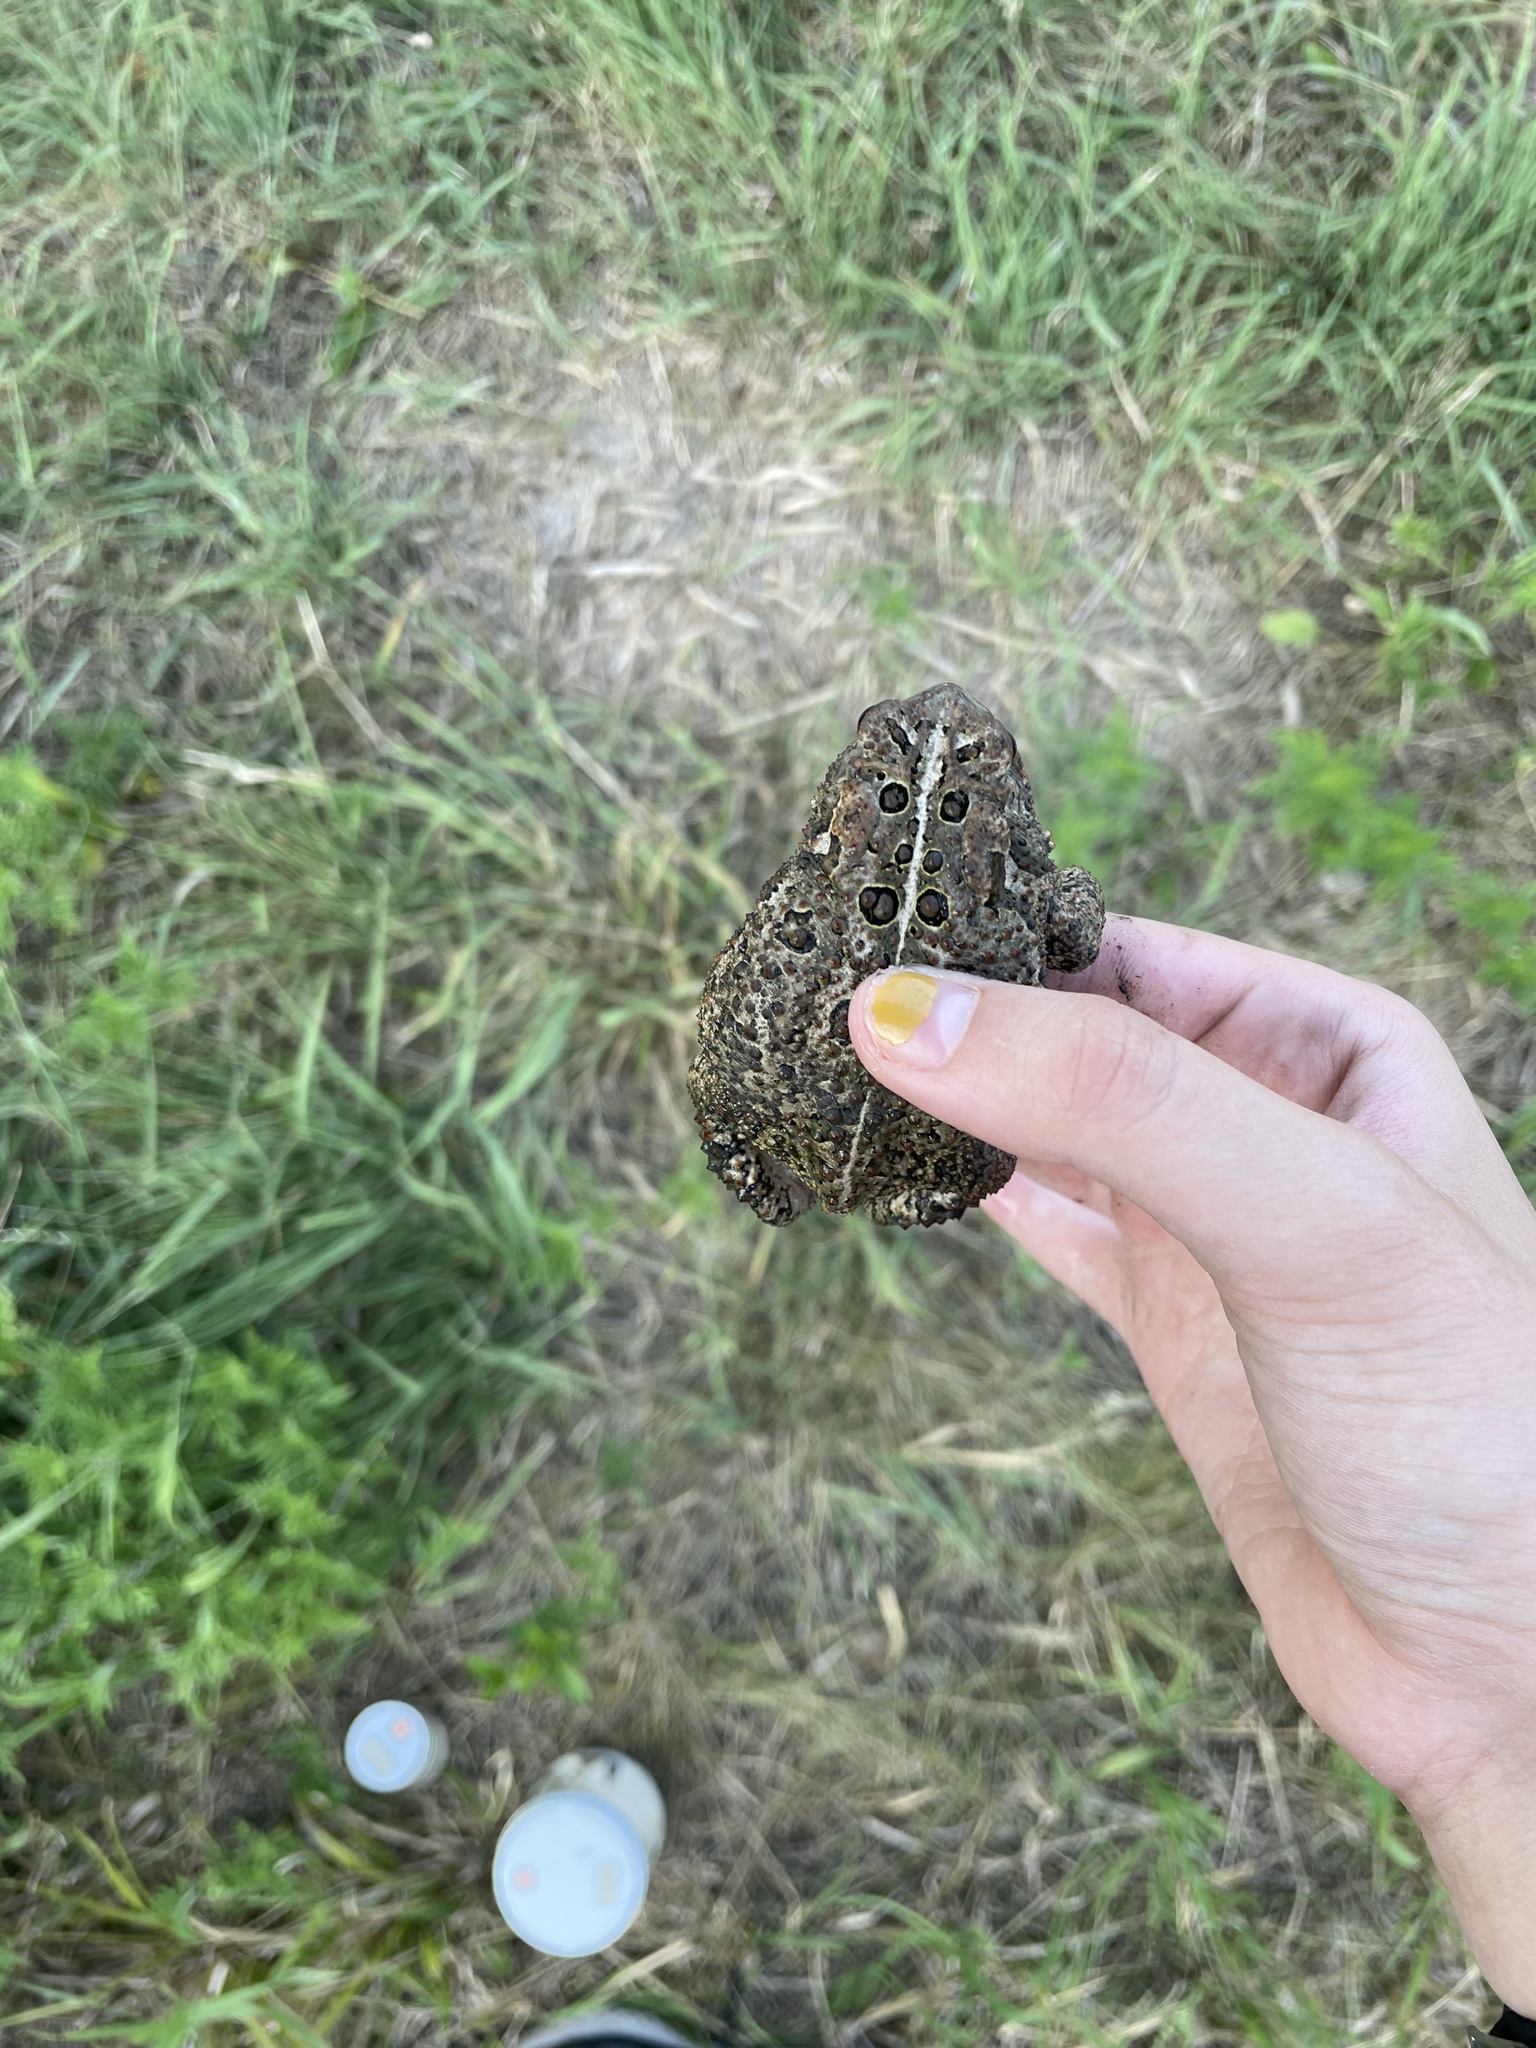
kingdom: Animalia
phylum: Chordata
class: Amphibia
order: Anura
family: Bufonidae
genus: Anaxyrus
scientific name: Anaxyrus americanus
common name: American toad
